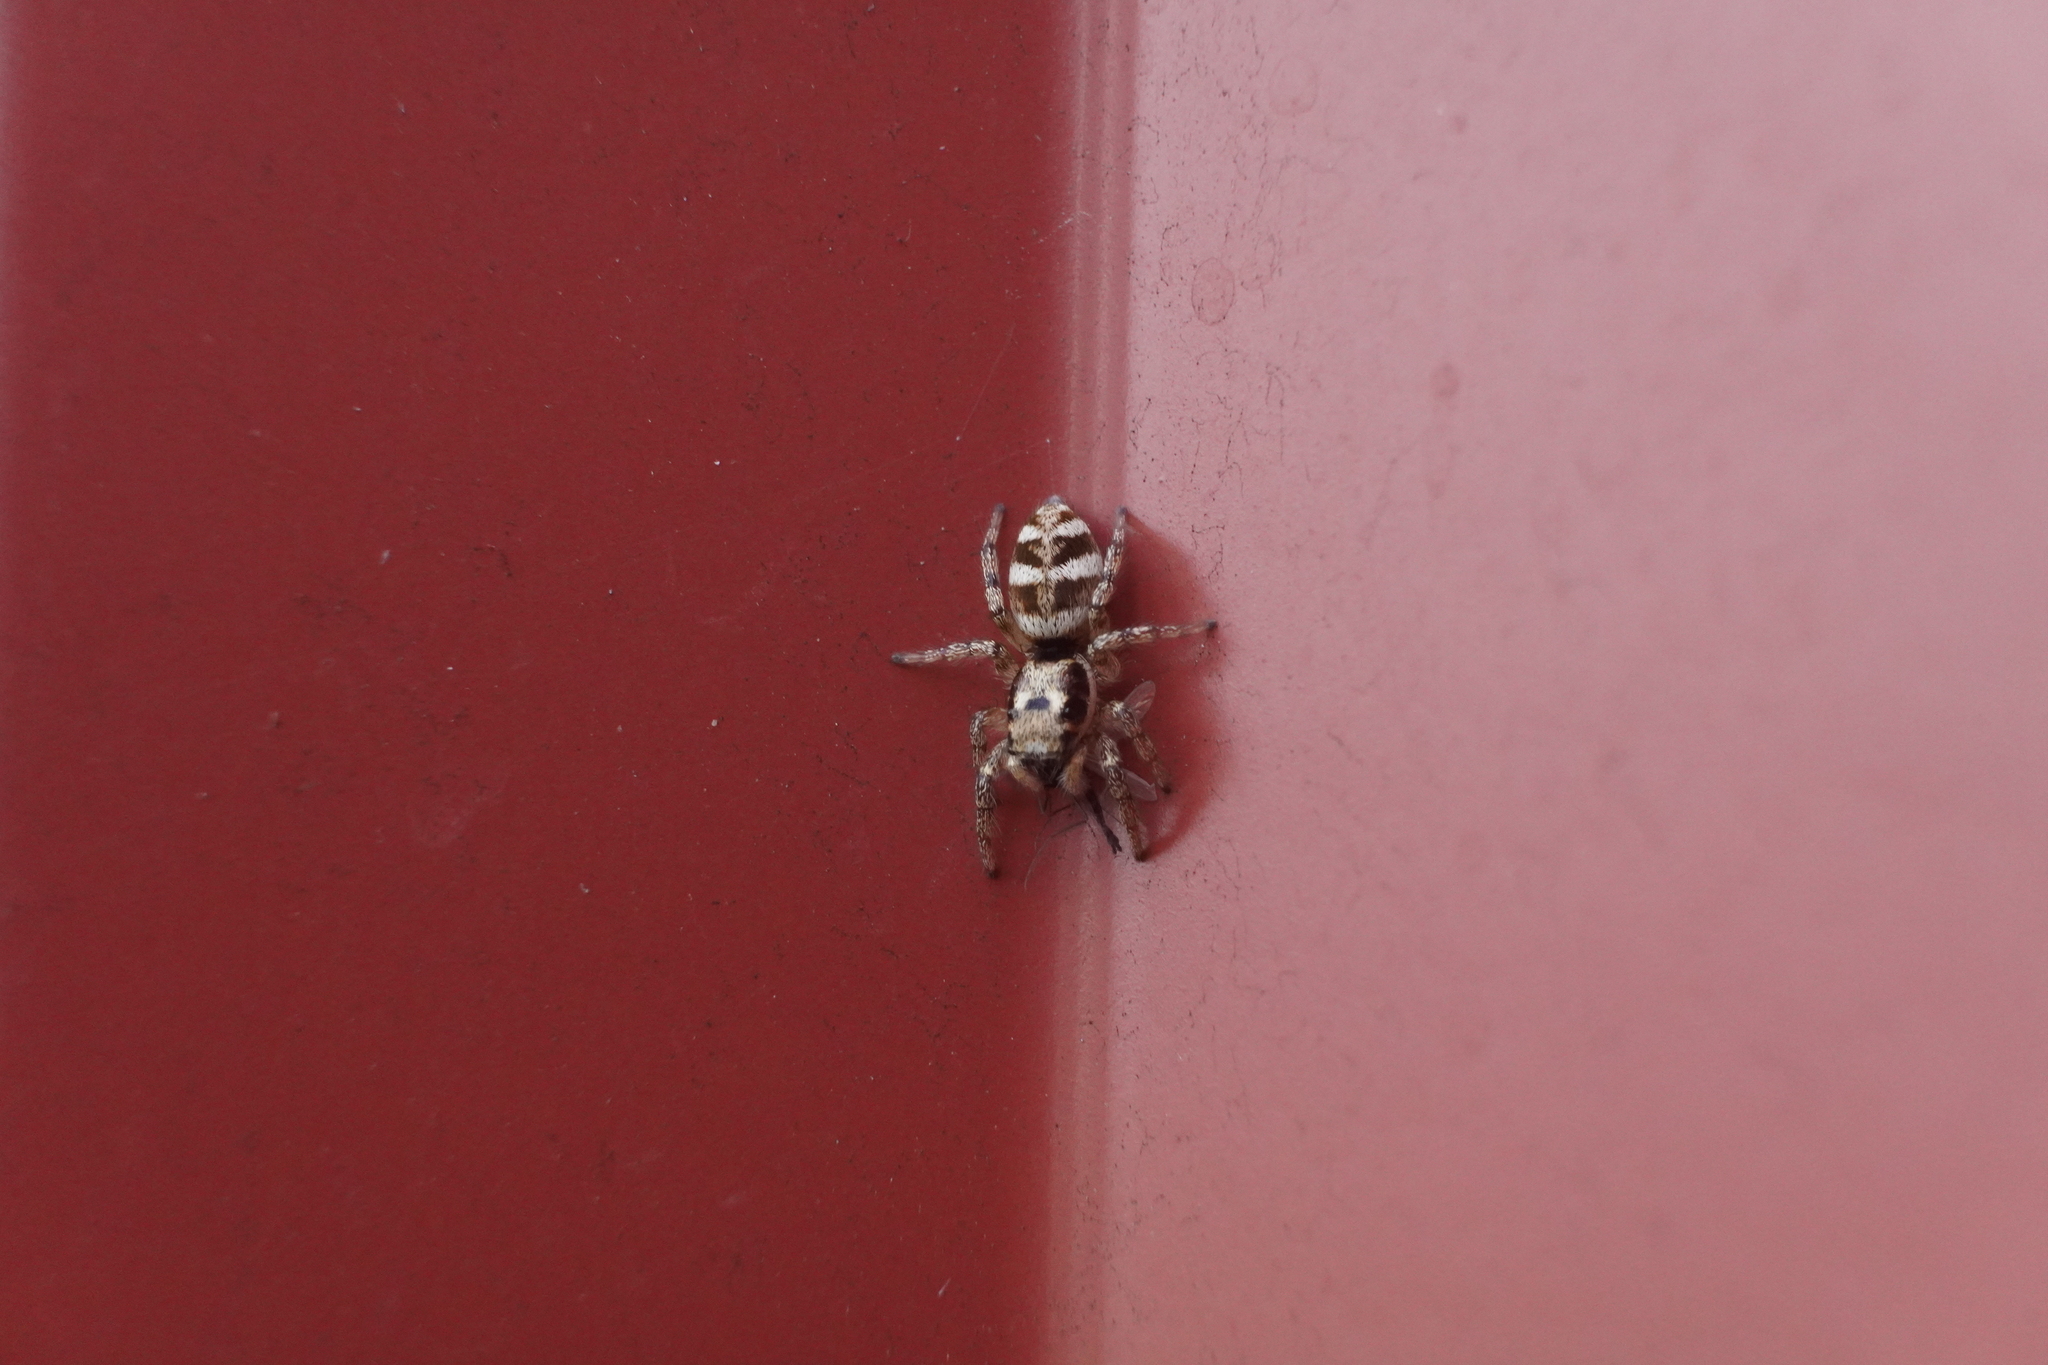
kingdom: Animalia
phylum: Arthropoda
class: Arachnida
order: Araneae
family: Salticidae
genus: Salticus
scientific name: Salticus scenicus
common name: Zebra jumper
